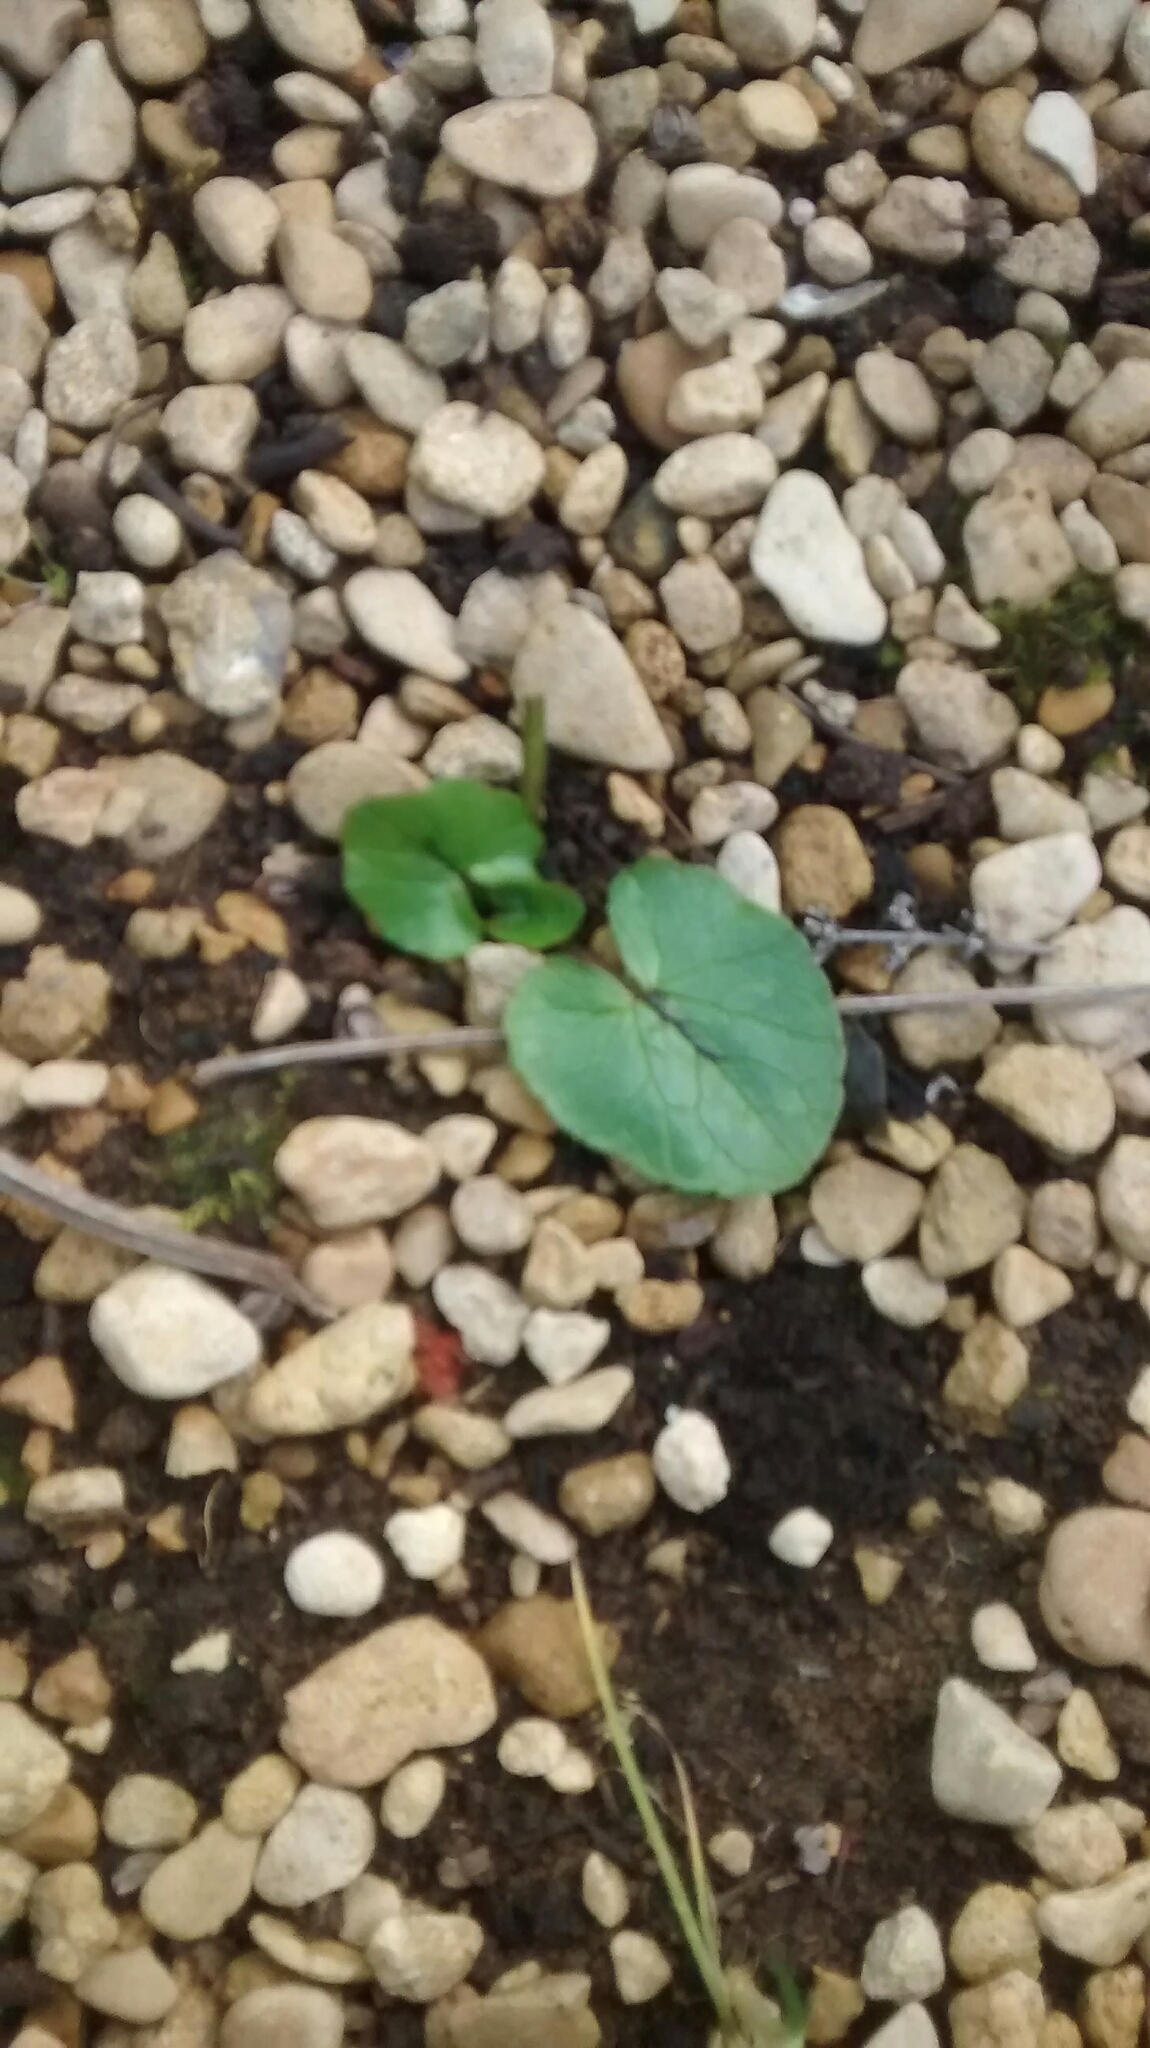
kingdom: Animalia
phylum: Arthropoda
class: Insecta
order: Diptera
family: Agromyzidae
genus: Phytomyza
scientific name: Phytomyza nigritella
